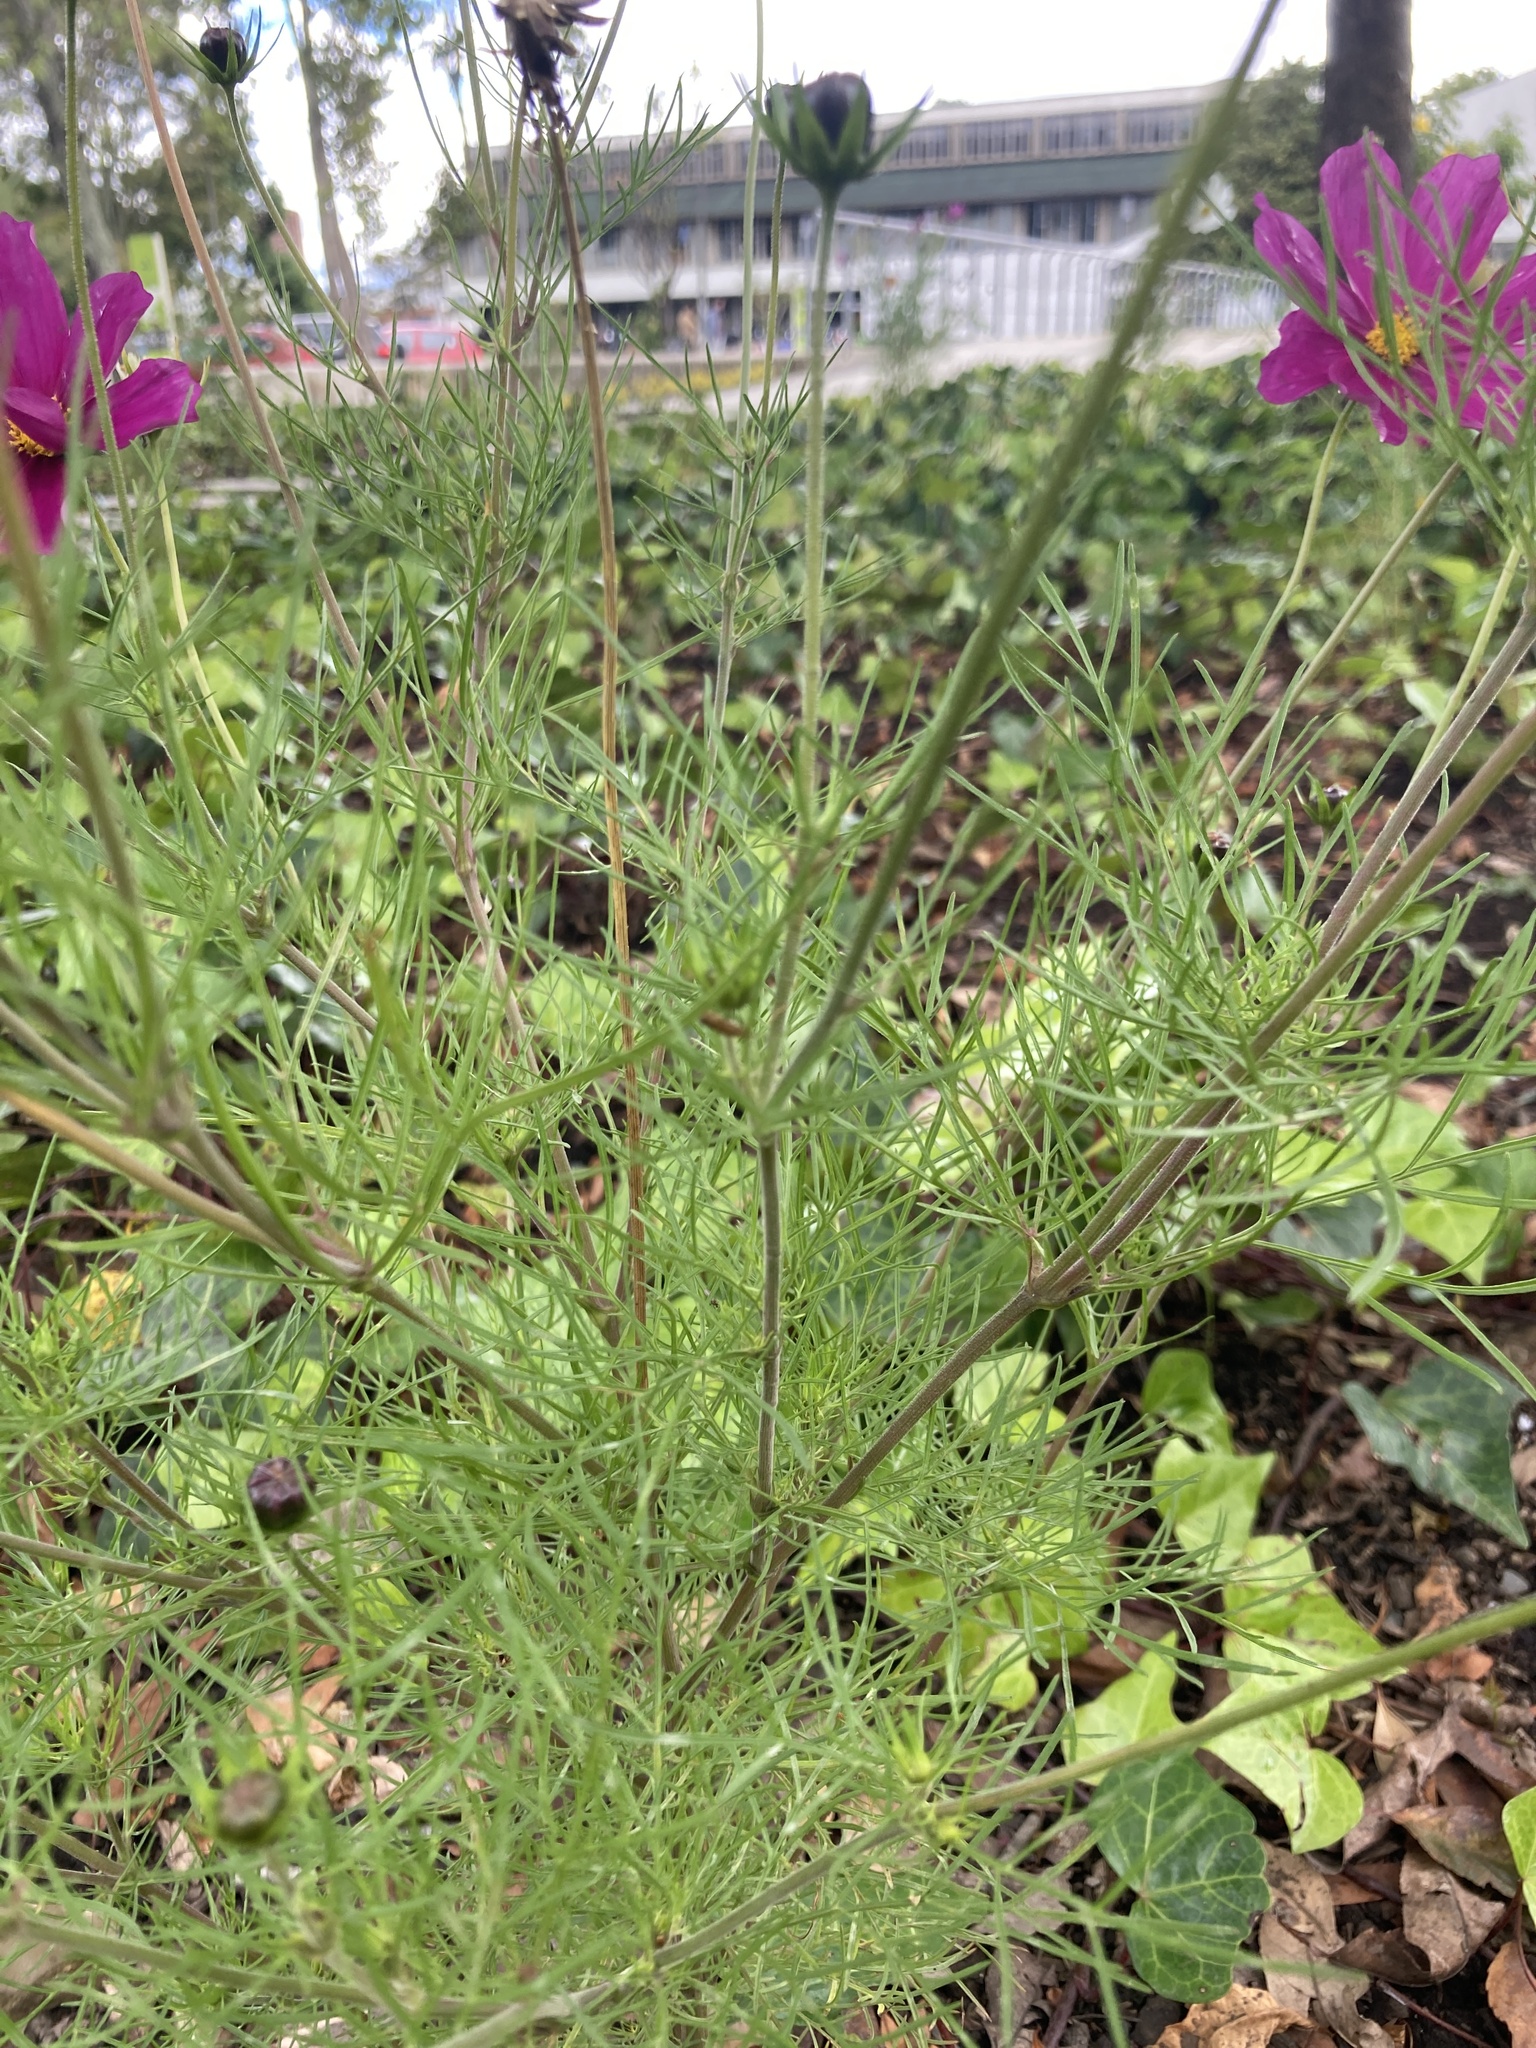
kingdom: Plantae
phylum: Tracheophyta
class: Magnoliopsida
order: Asterales
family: Asteraceae
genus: Cosmos
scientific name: Cosmos bipinnatus
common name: Garden cosmos
